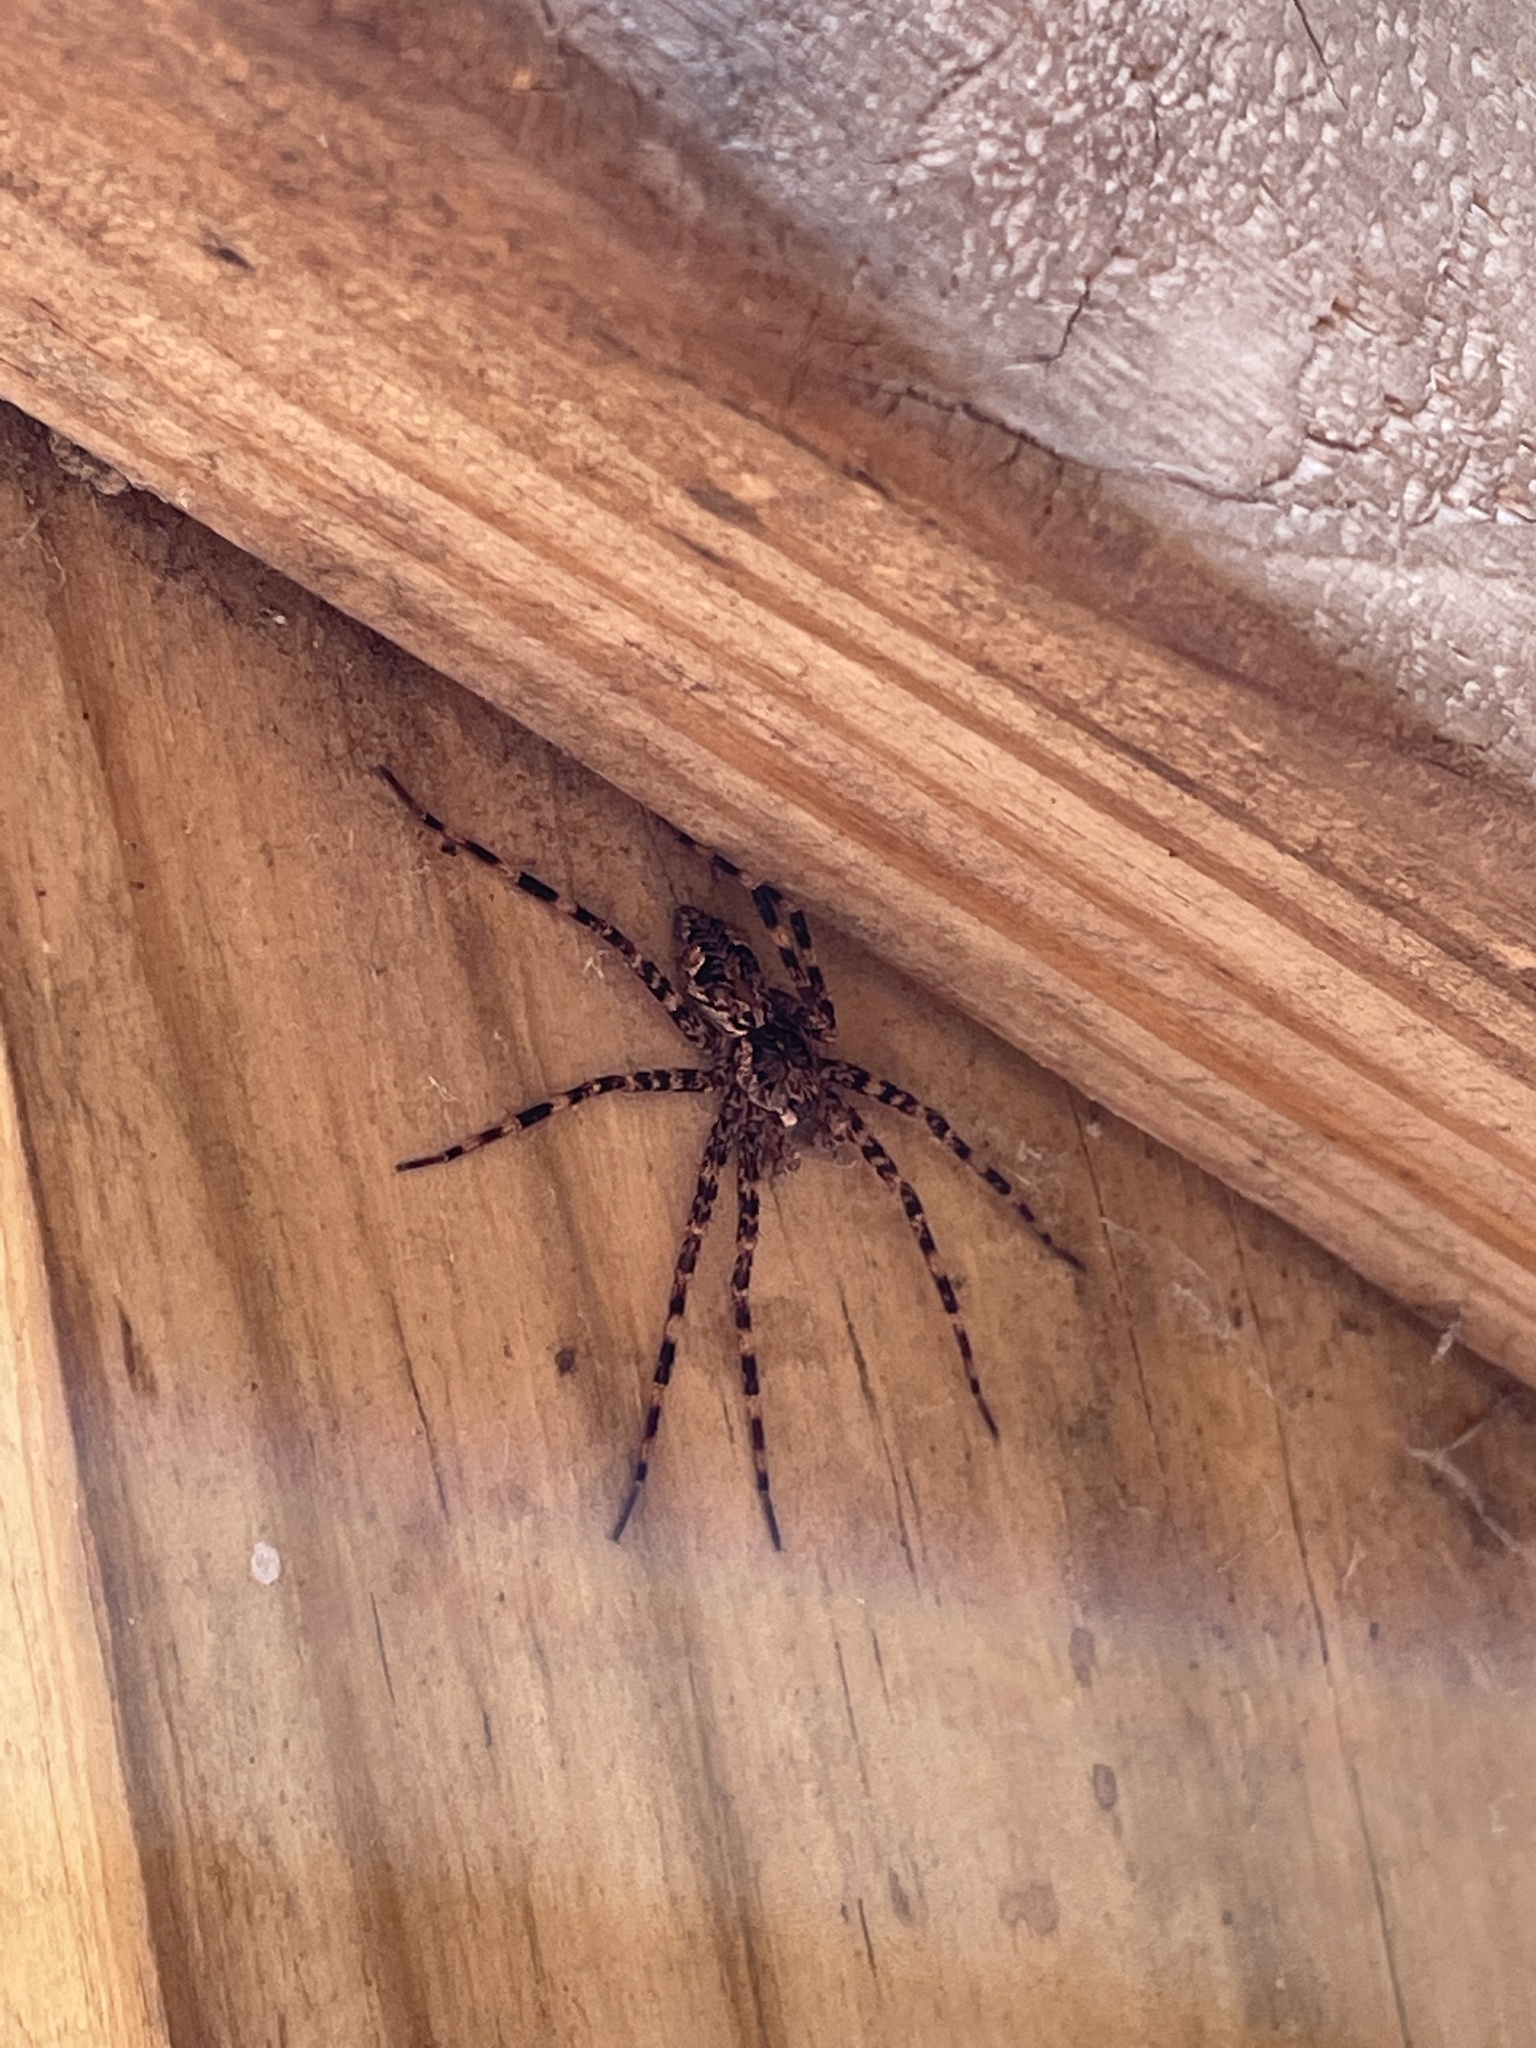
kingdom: Animalia
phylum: Arthropoda
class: Arachnida
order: Araneae
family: Pisauridae
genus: Dolomedes
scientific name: Dolomedes tenebrosus
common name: Dark fishing spider
